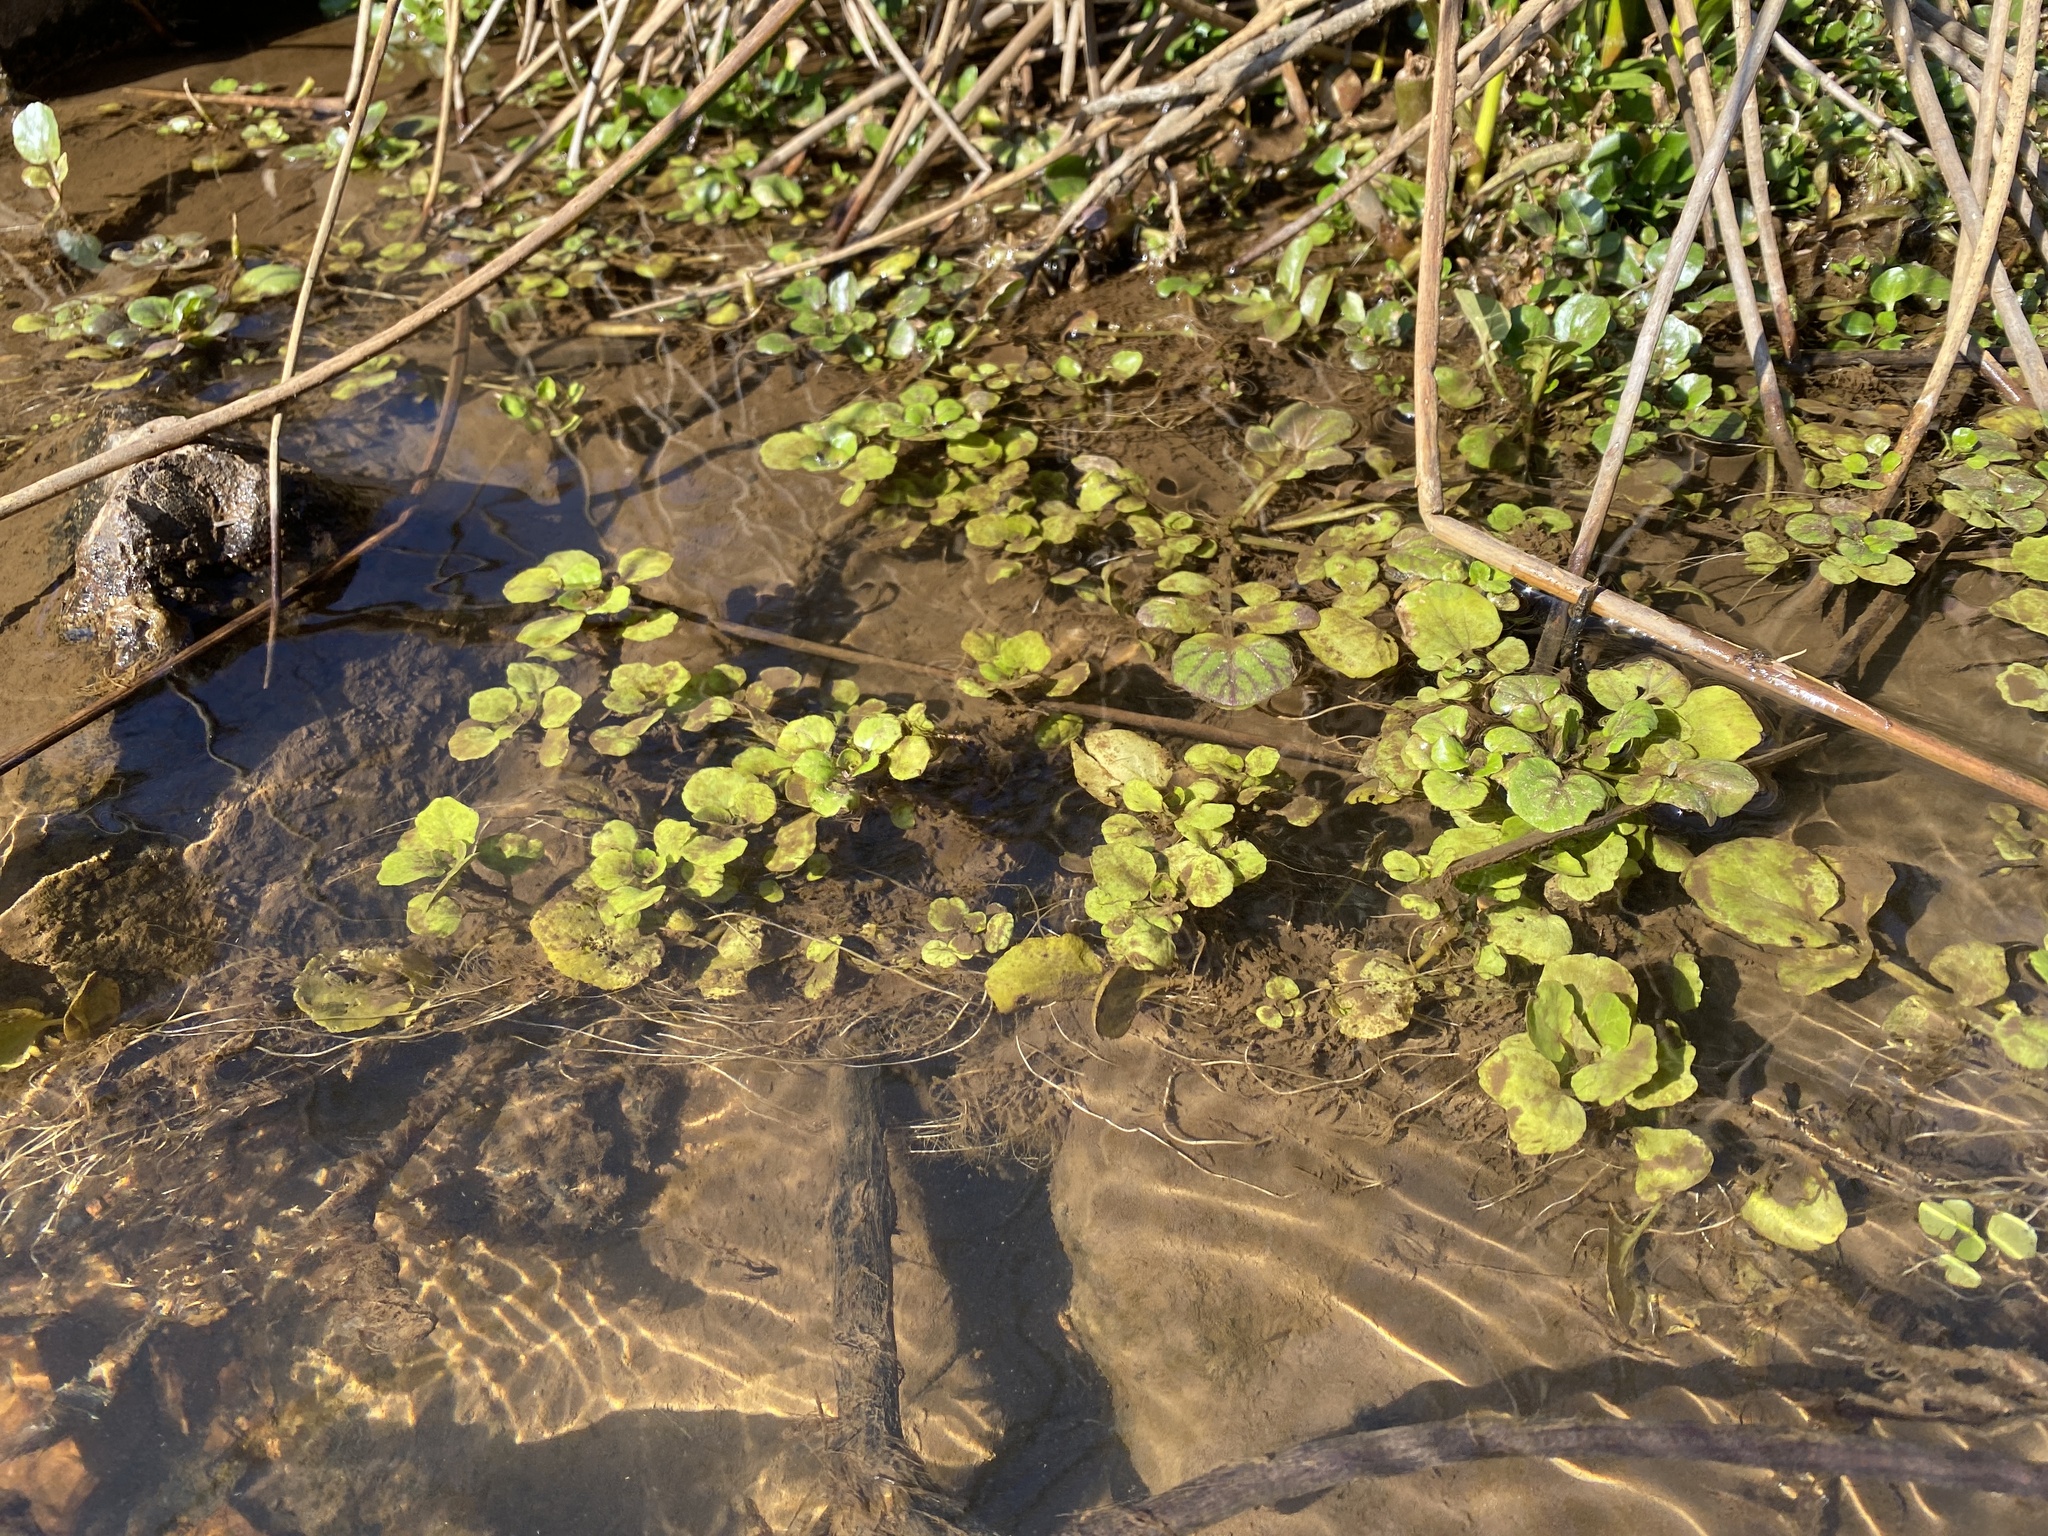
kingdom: Plantae
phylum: Tracheophyta
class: Magnoliopsida
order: Brassicales
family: Brassicaceae
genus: Nasturtium
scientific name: Nasturtium officinale
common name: Watercress
